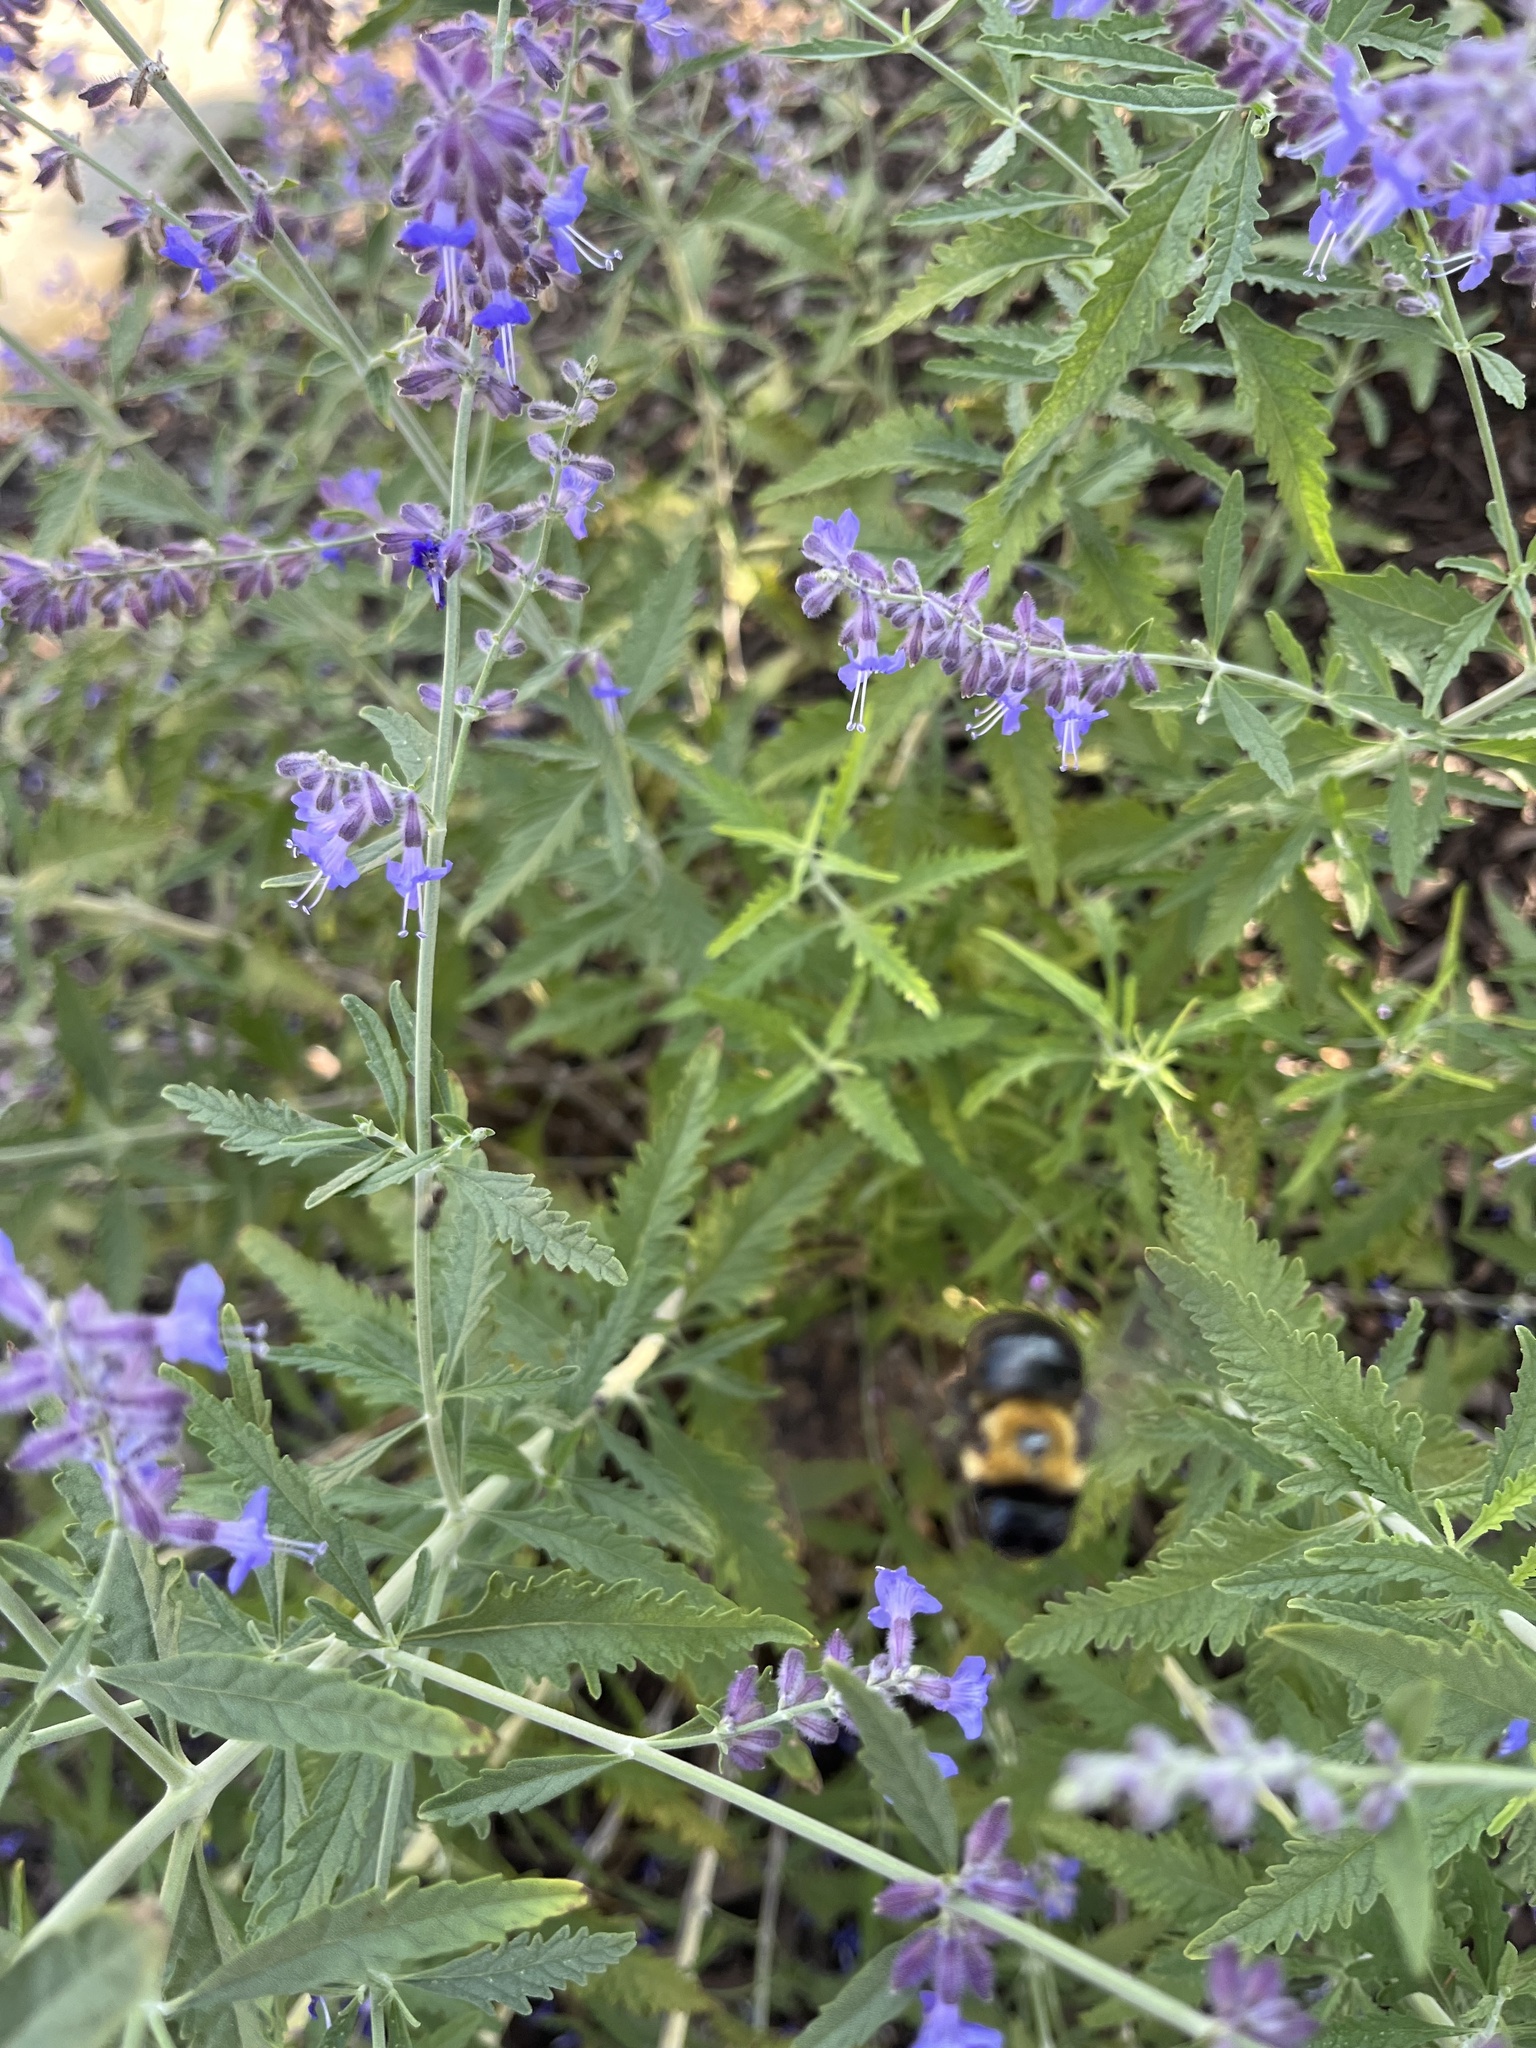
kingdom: Animalia
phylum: Arthropoda
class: Insecta
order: Hymenoptera
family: Apidae
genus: Xylocopa
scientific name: Xylocopa virginica
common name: Carpenter bee
